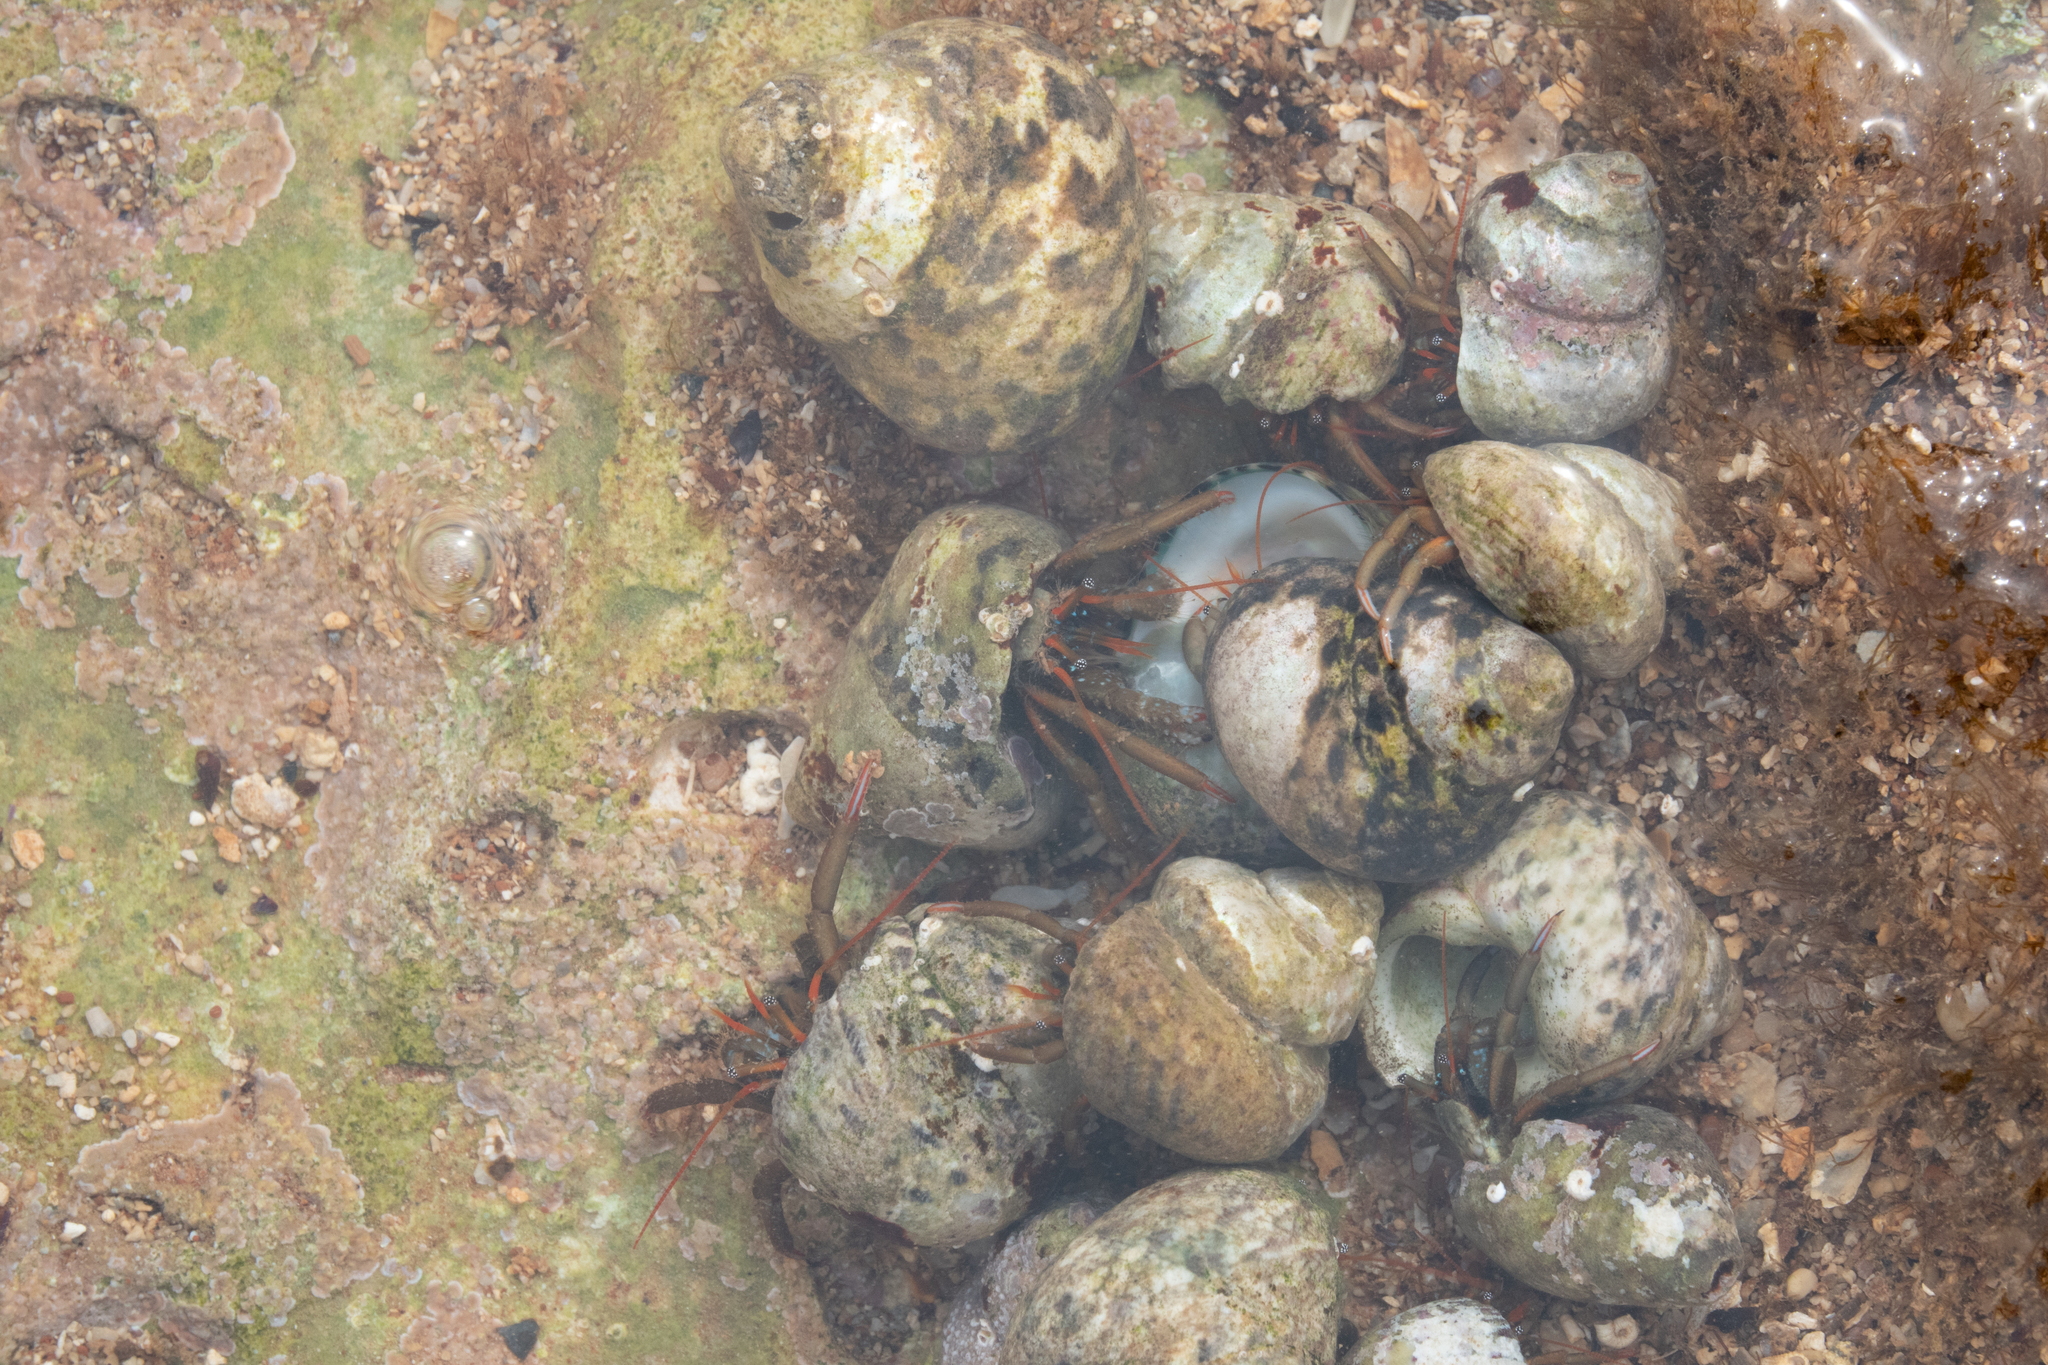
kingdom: Animalia
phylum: Arthropoda
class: Malacostraca
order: Decapoda
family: Diogenidae
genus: Clibanarius
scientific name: Clibanarius erythropus
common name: Hermit crab
